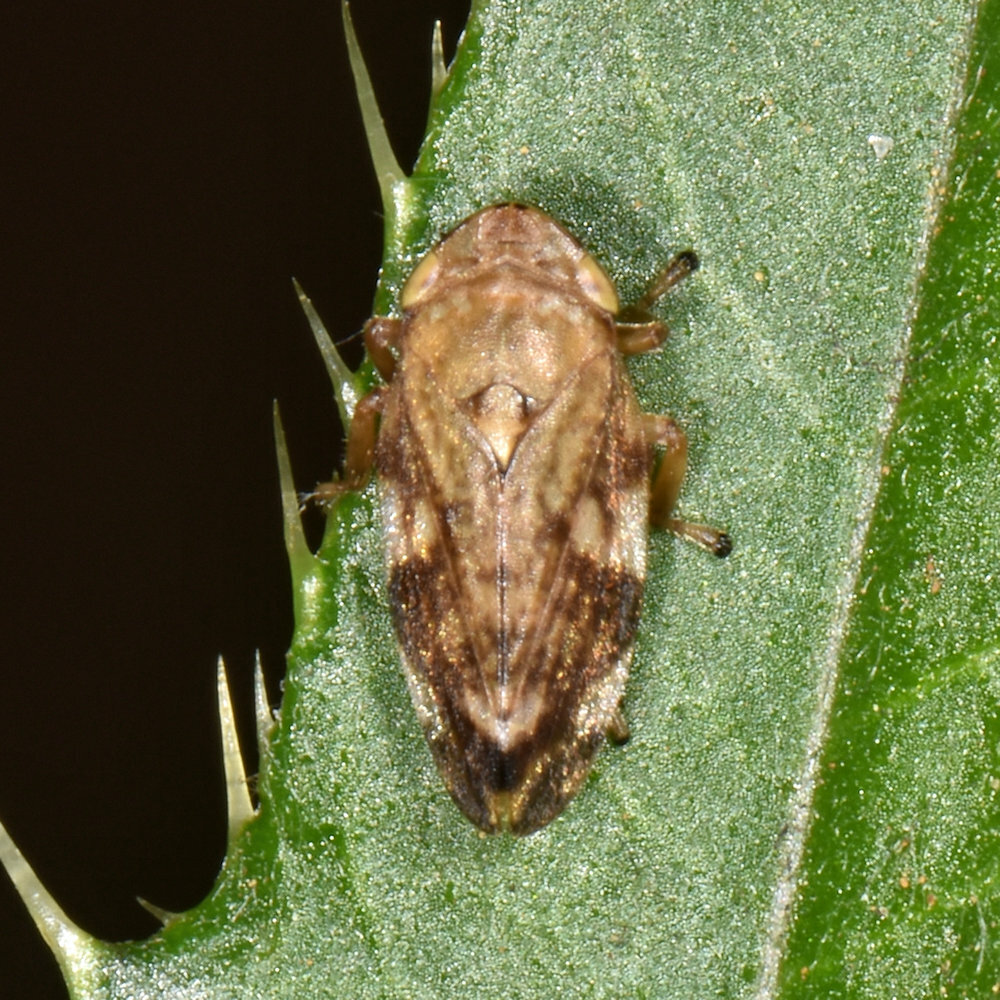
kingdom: Animalia
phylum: Arthropoda
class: Insecta
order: Hemiptera
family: Aphrophoridae
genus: Philaenus
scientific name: Philaenus spumarius
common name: Meadow spittlebug
